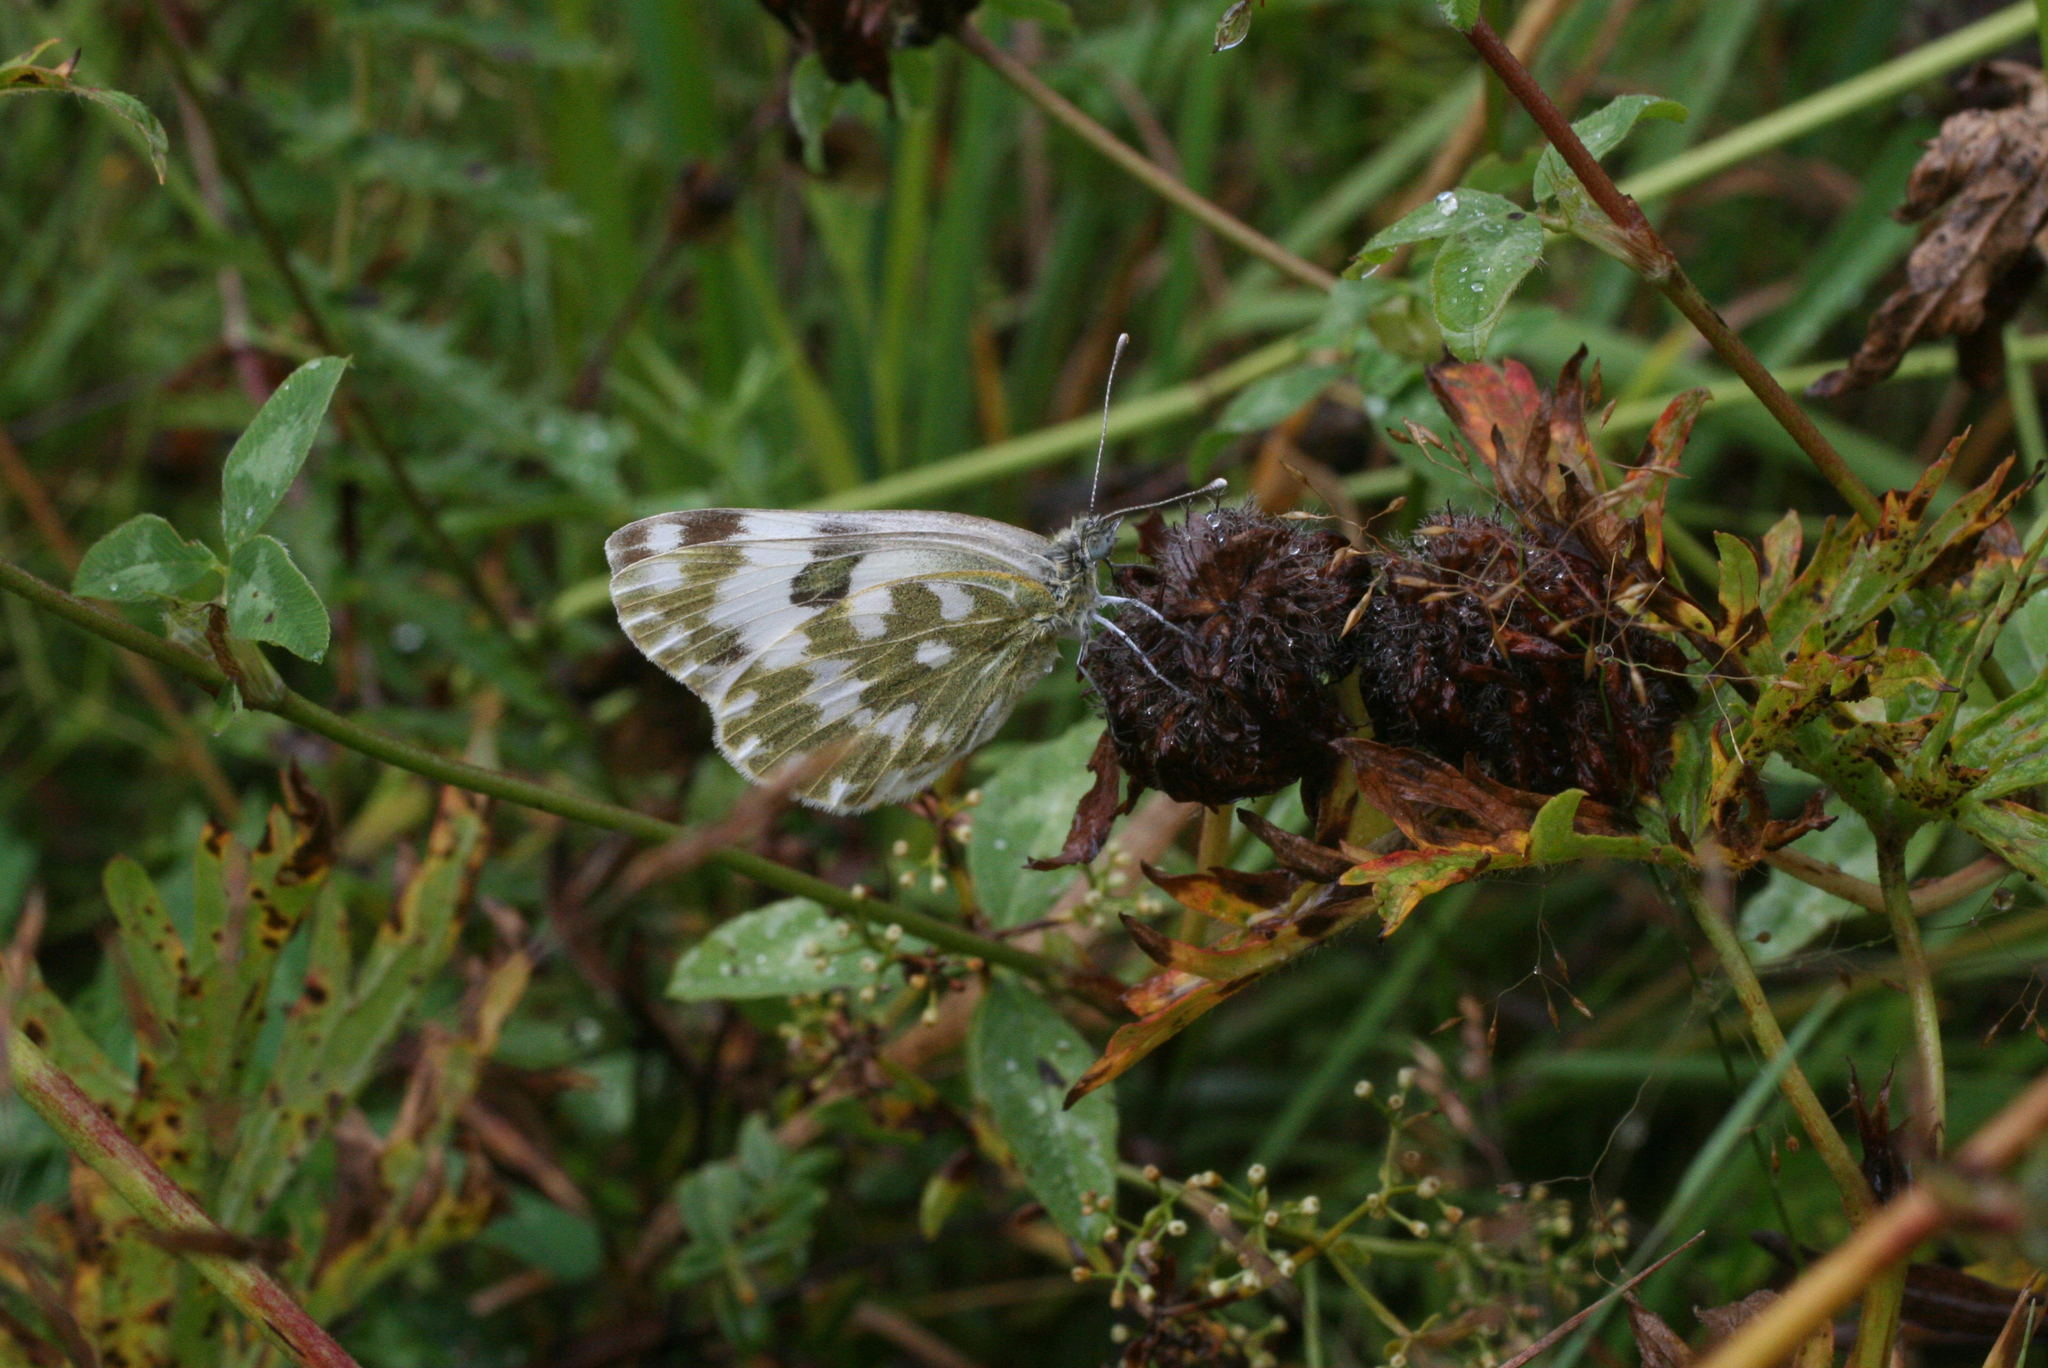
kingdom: Plantae
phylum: Tracheophyta
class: Magnoliopsida
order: Fabales
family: Fabaceae
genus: Trifolium
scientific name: Trifolium pratense
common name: Red clover
